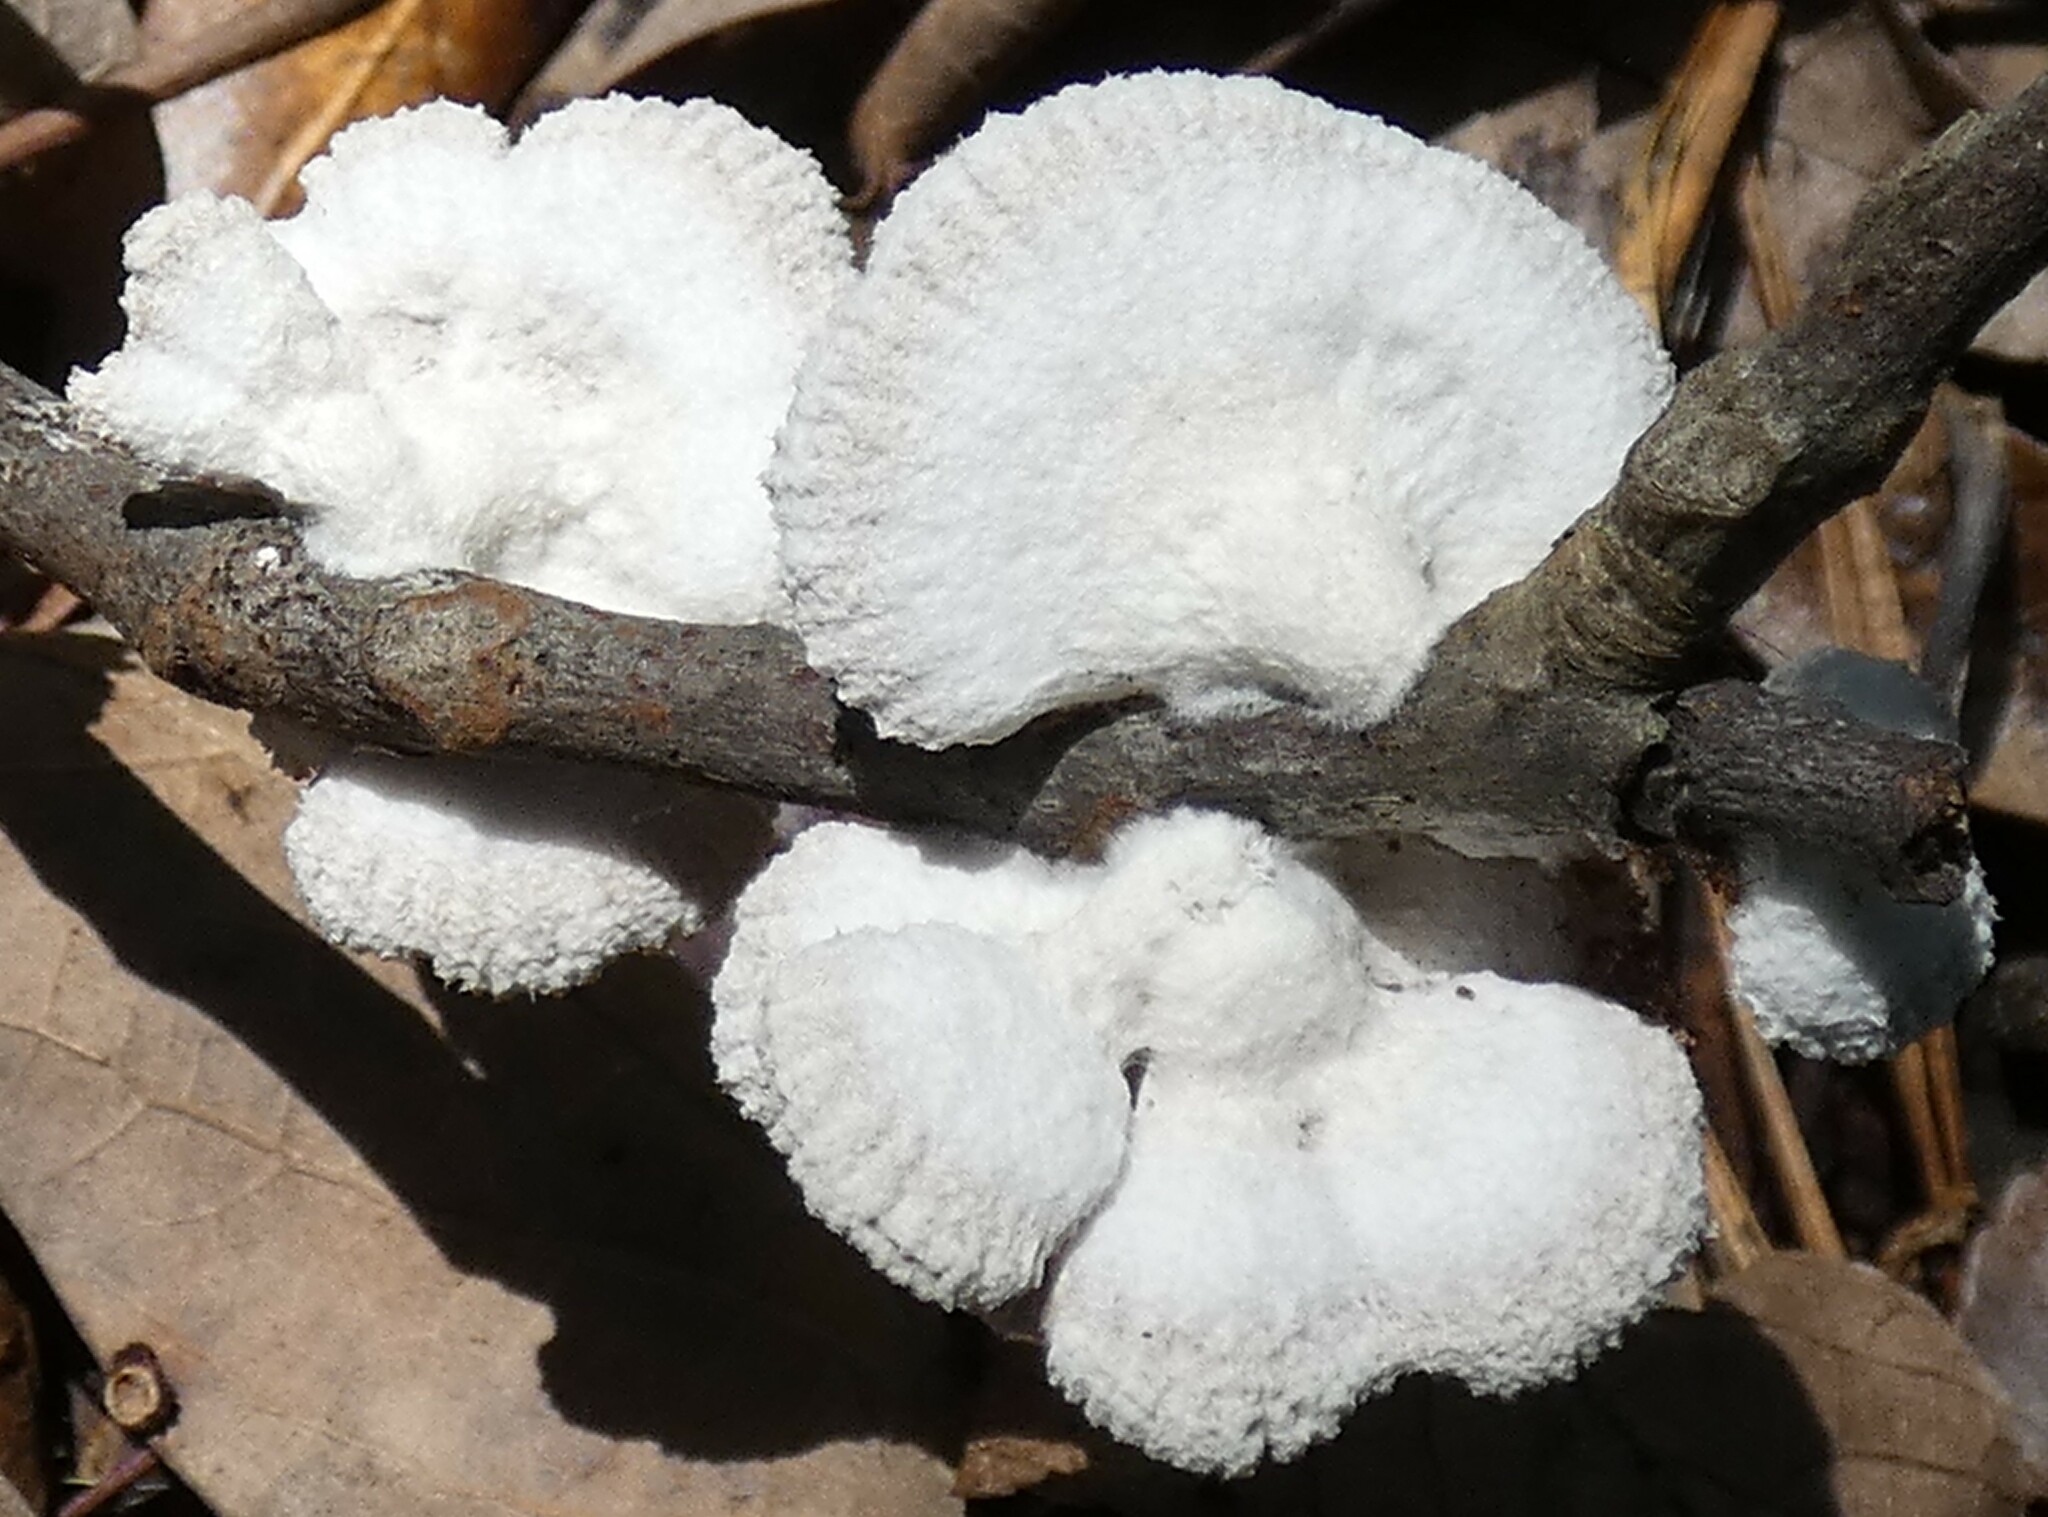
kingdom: Fungi
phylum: Basidiomycota
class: Agaricomycetes
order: Agaricales
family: Schizophyllaceae
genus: Schizophyllum
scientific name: Schizophyllum commune
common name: Common porecrust
